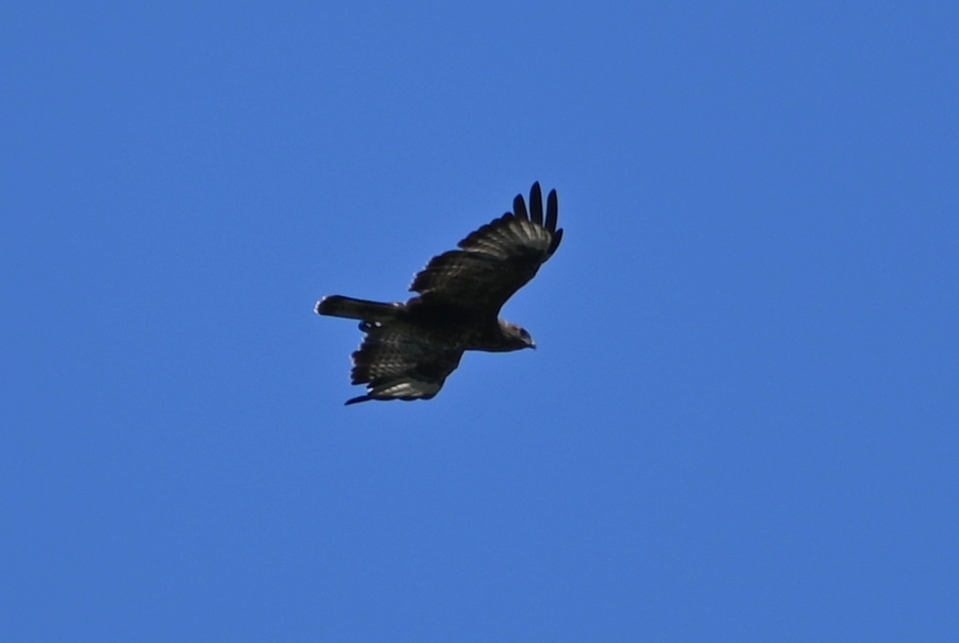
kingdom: Animalia
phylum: Chordata
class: Aves
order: Accipitriformes
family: Accipitridae
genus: Buteo
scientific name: Buteo buteo
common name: Common buzzard
